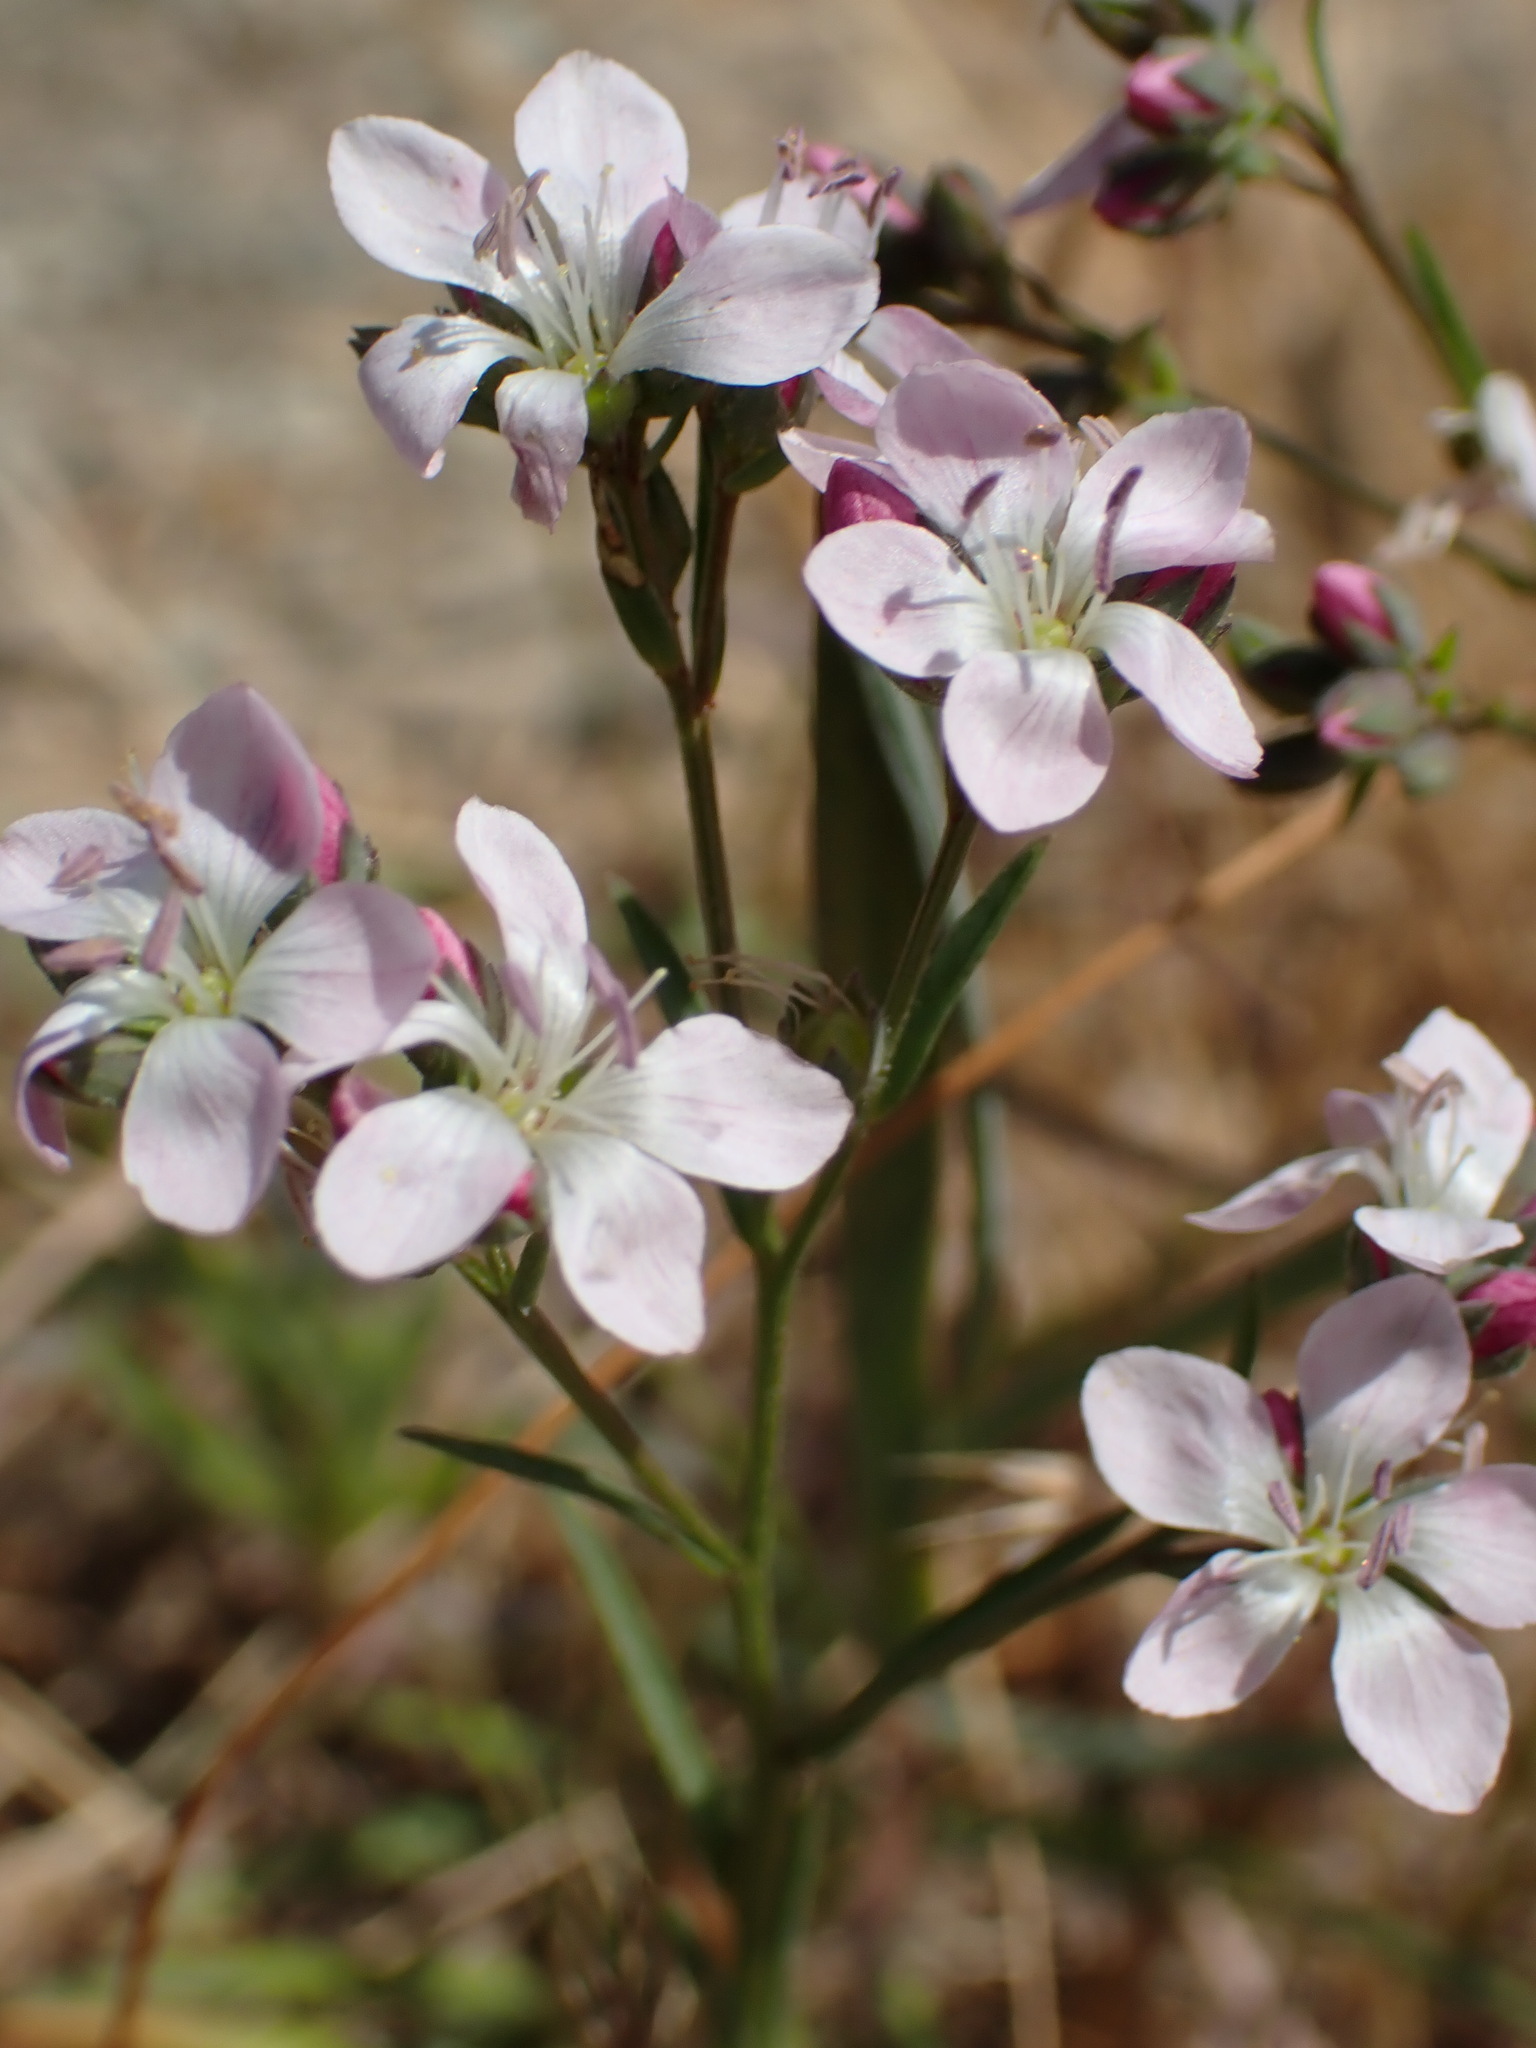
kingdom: Plantae
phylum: Tracheophyta
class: Magnoliopsida
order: Malpighiales
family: Linaceae
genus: Hesperolinon
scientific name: Hesperolinon congestum
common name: Marin dwarf-flax
